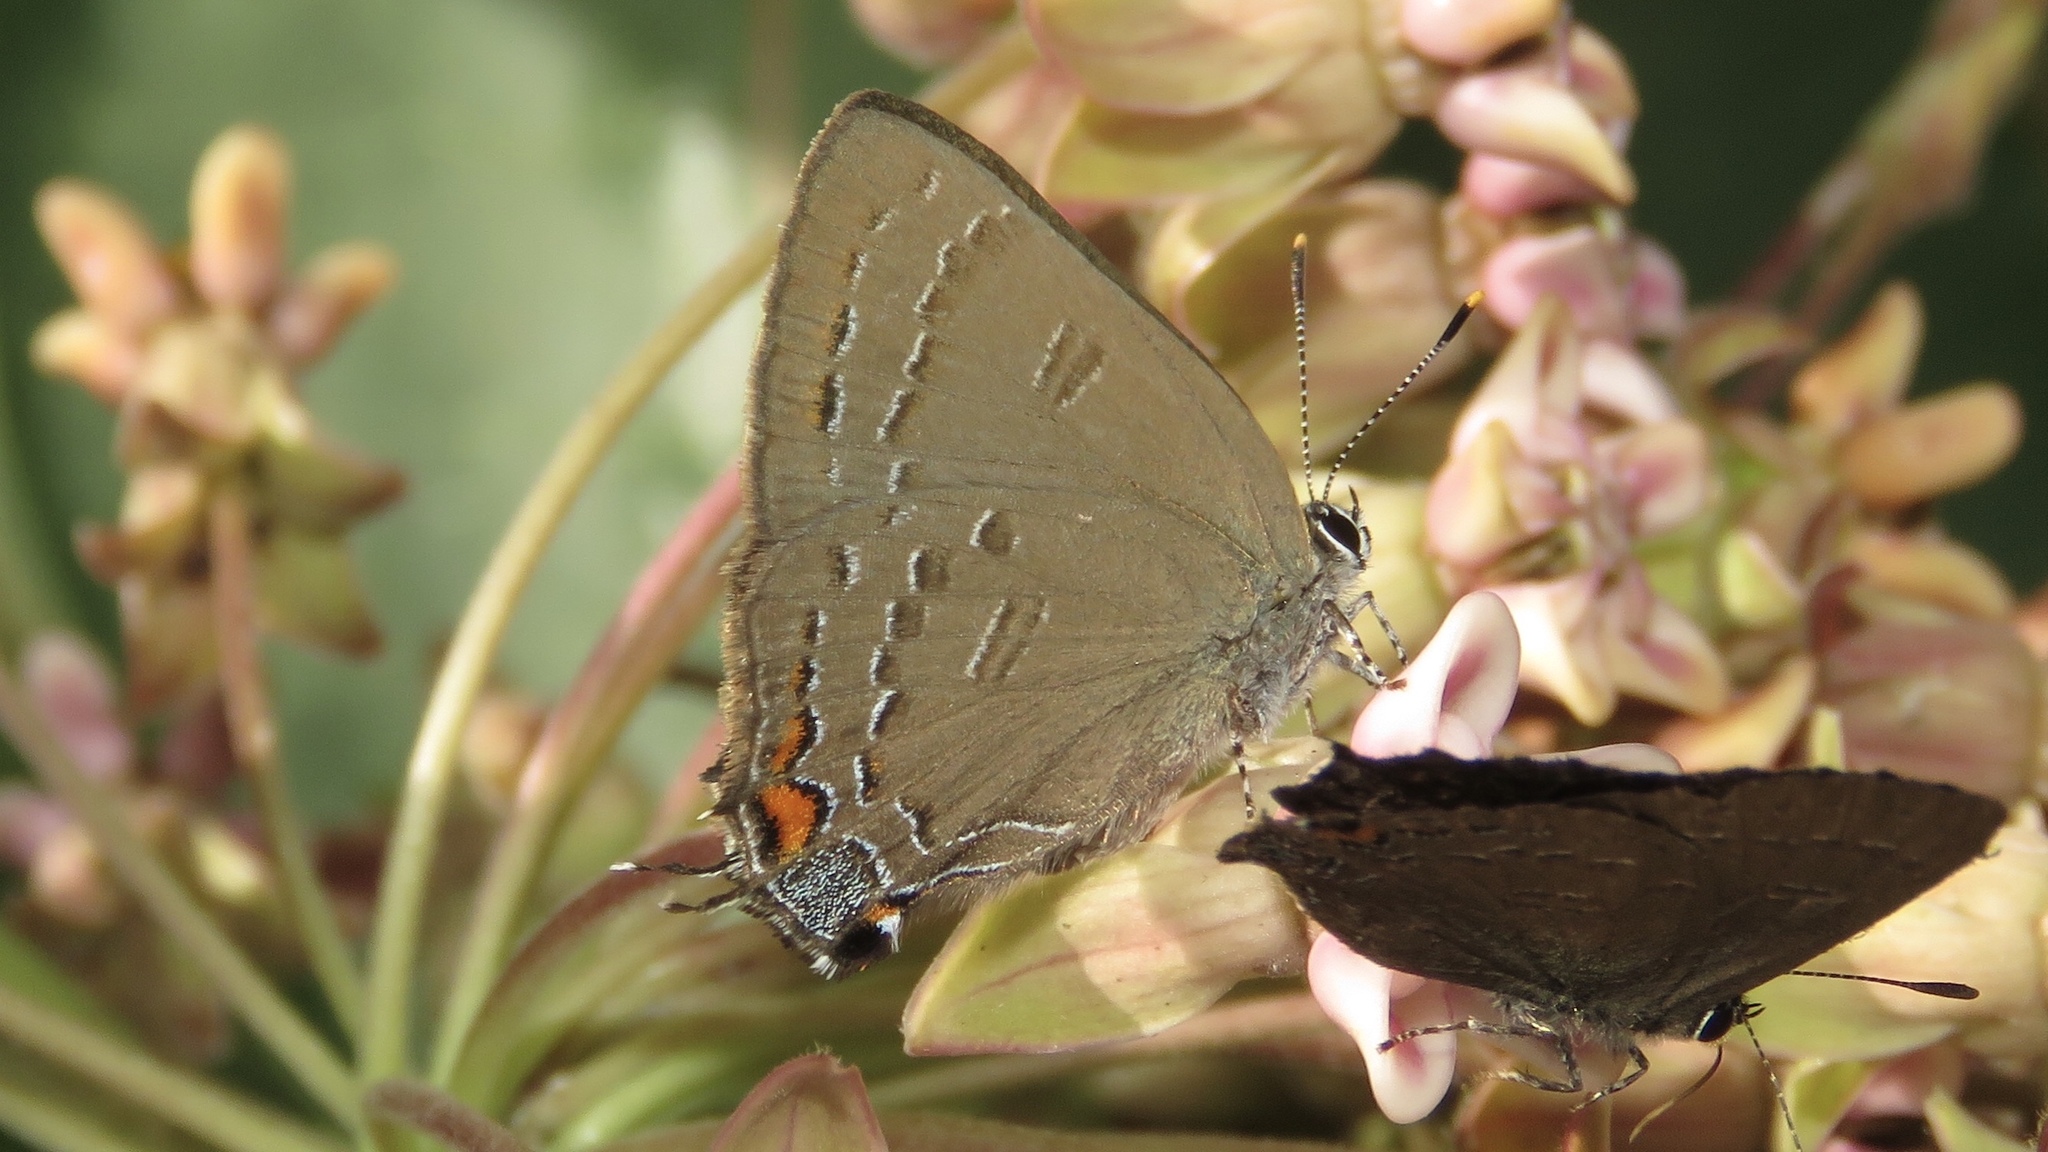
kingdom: Animalia
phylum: Arthropoda
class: Insecta
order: Lepidoptera
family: Lycaenidae
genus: Satyrium
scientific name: Satyrium calanus
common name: Banded hairstreak
